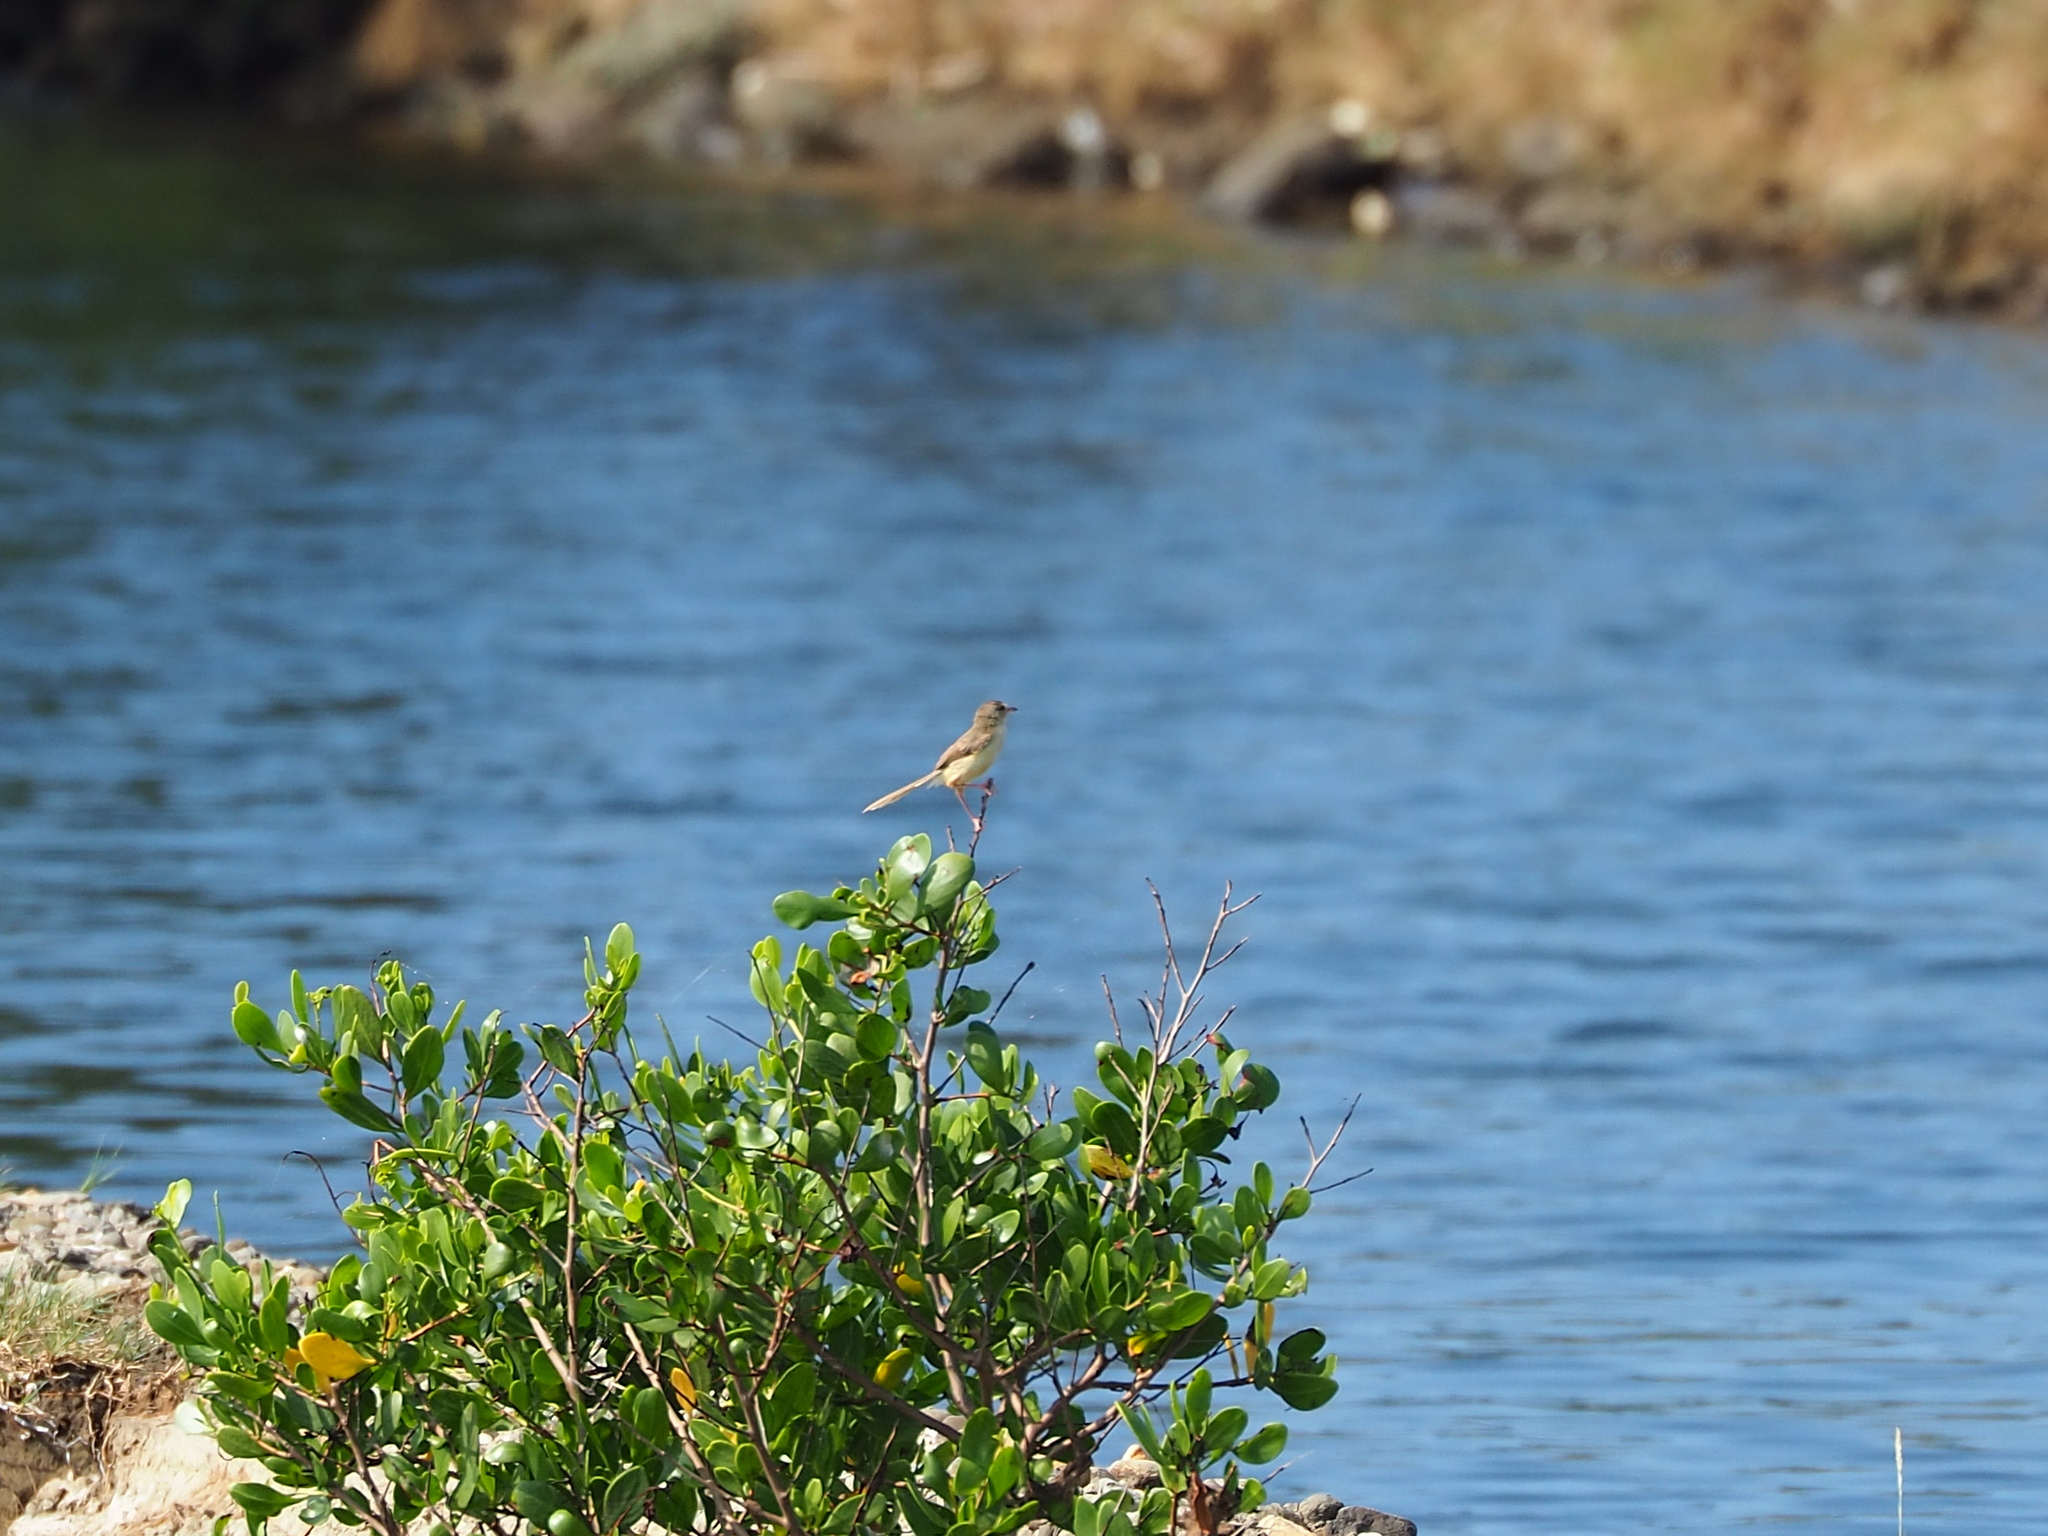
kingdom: Animalia
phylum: Chordata
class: Aves
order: Passeriformes
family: Cisticolidae
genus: Prinia
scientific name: Prinia inornata
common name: Plain prinia
